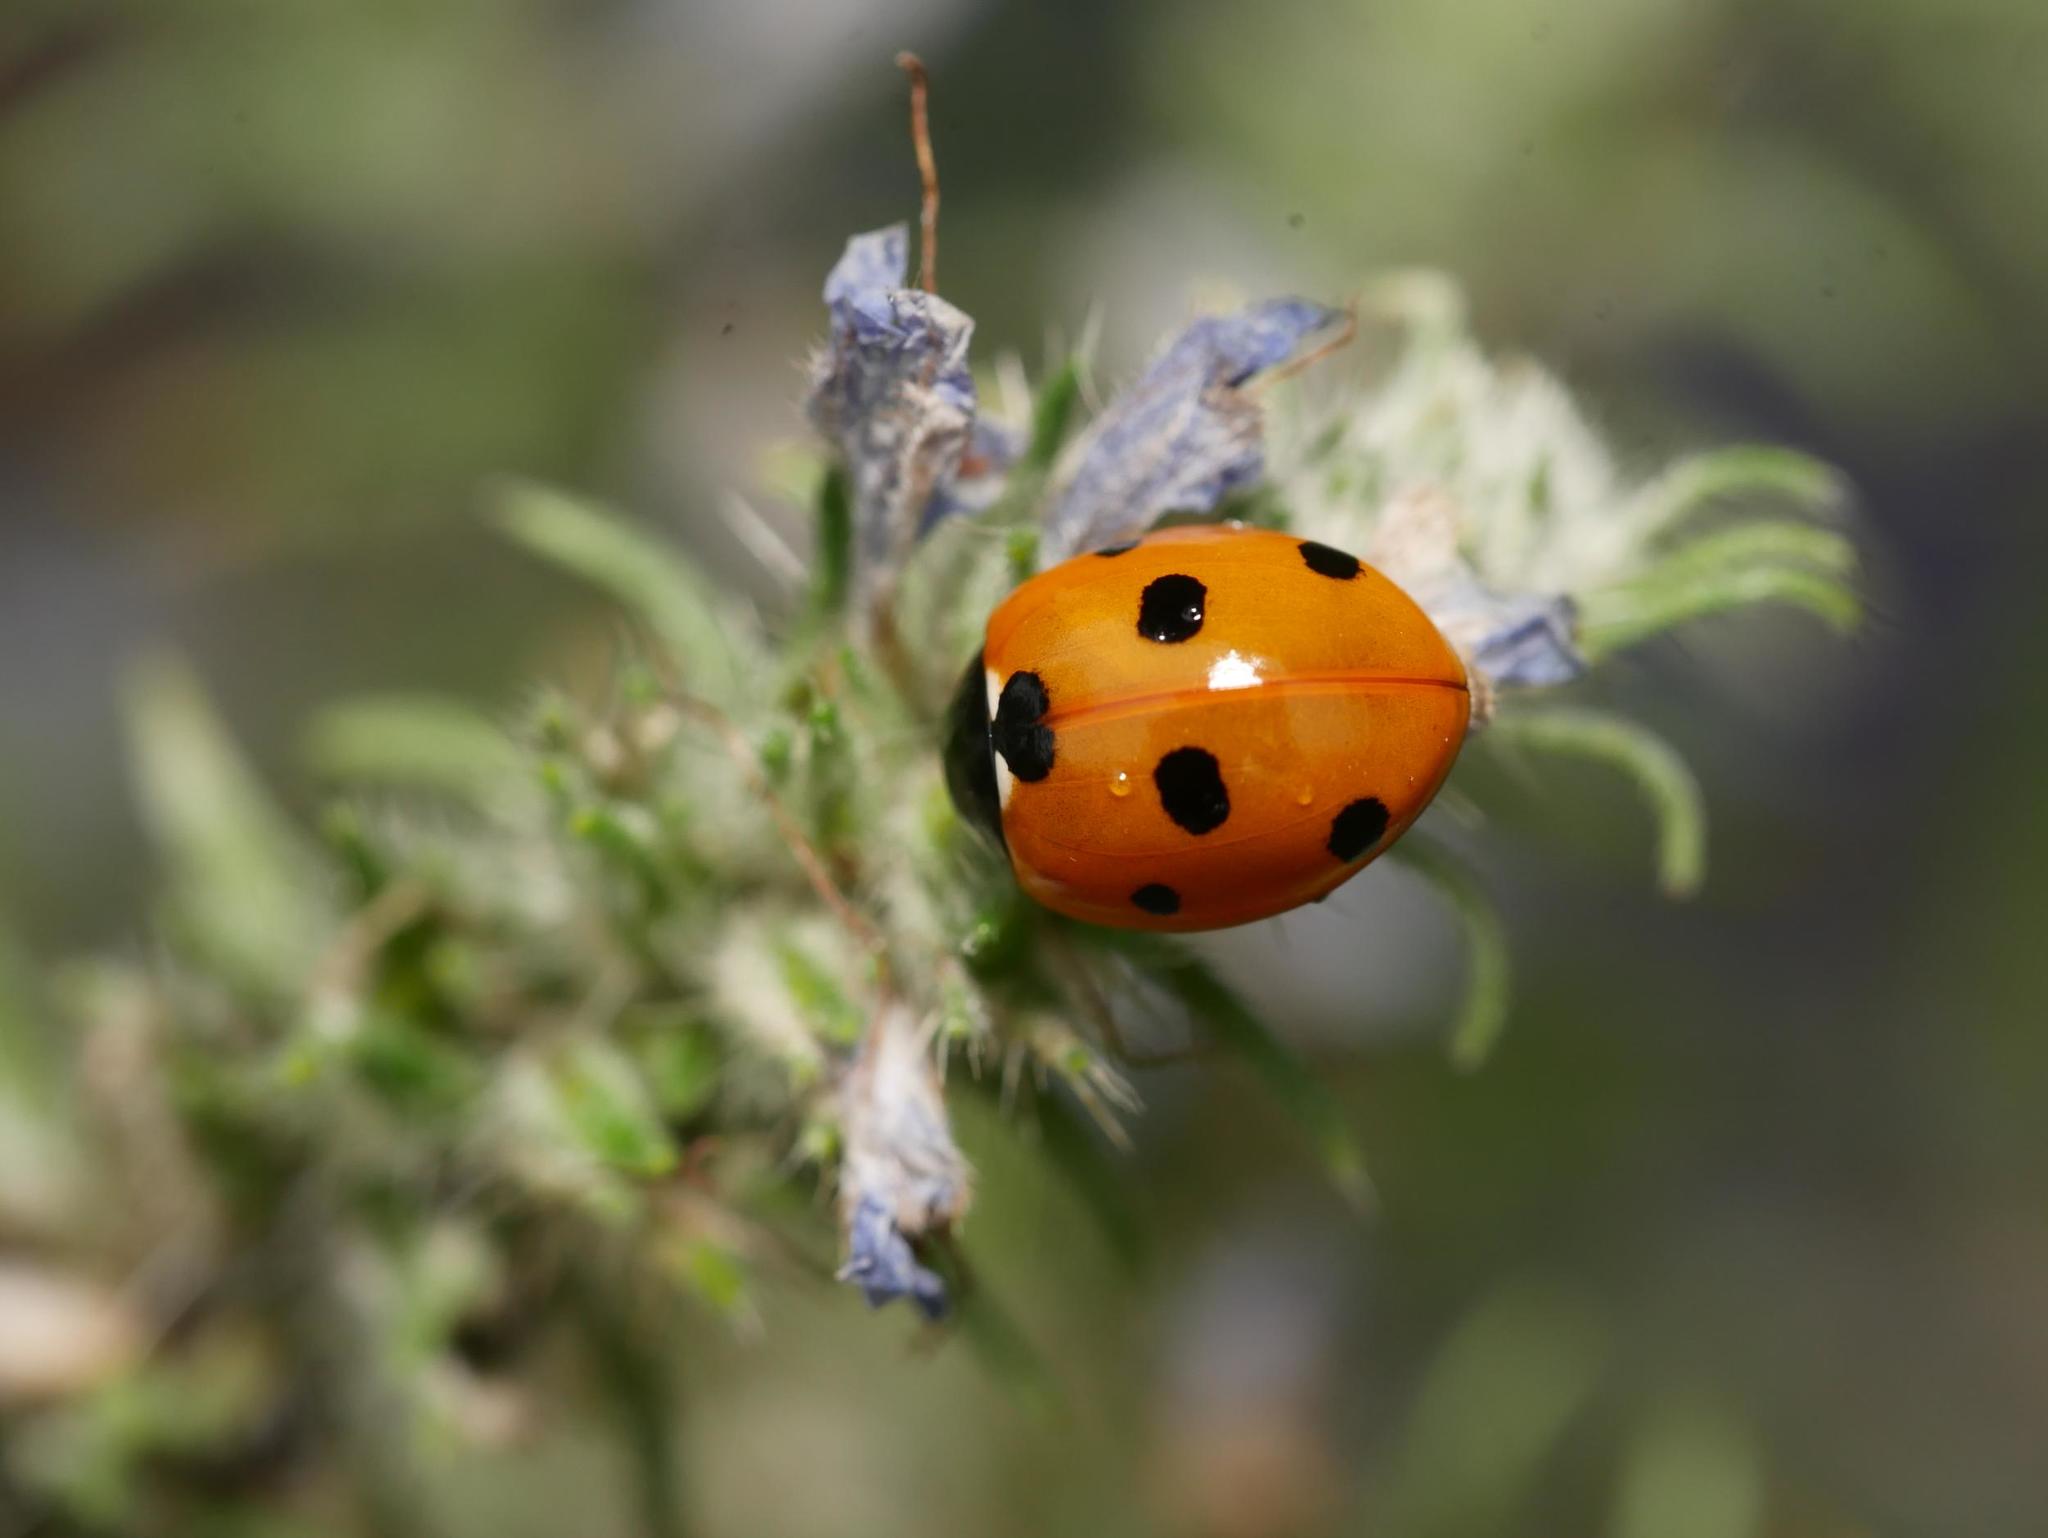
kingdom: Animalia
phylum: Arthropoda
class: Insecta
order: Coleoptera
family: Coccinellidae
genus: Coccinella
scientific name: Coccinella septempunctata
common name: Sevenspotted lady beetle
